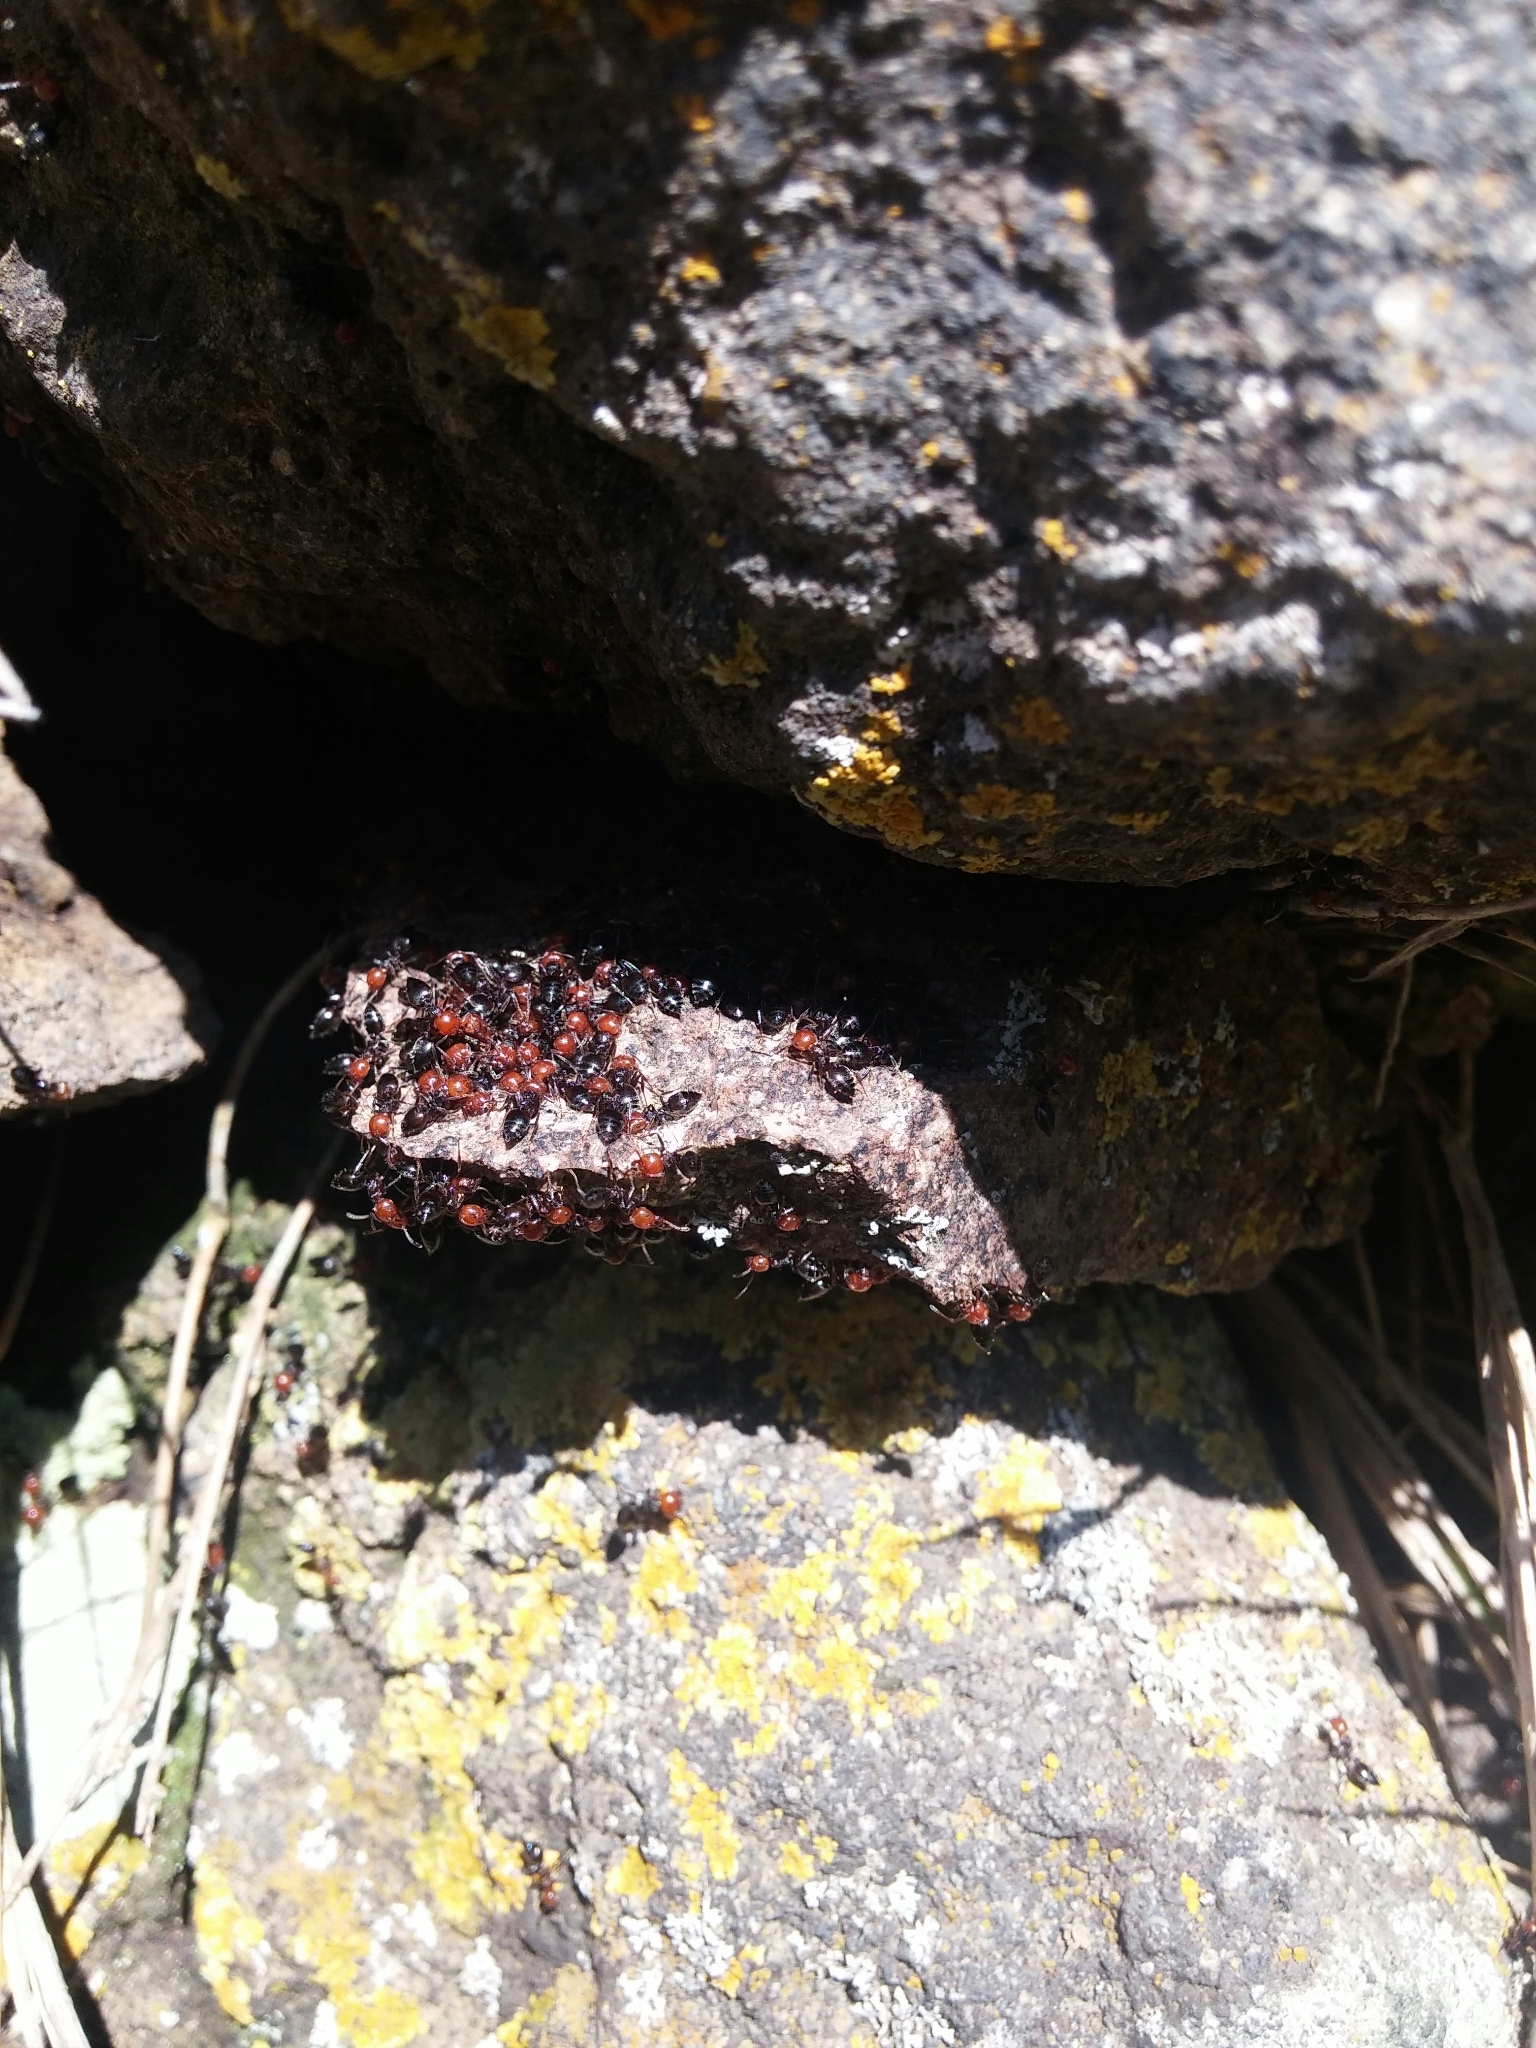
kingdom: Animalia
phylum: Arthropoda
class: Insecta
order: Hymenoptera
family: Formicidae
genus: Crematogaster
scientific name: Crematogaster scutellaris
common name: Fourmi du liège
